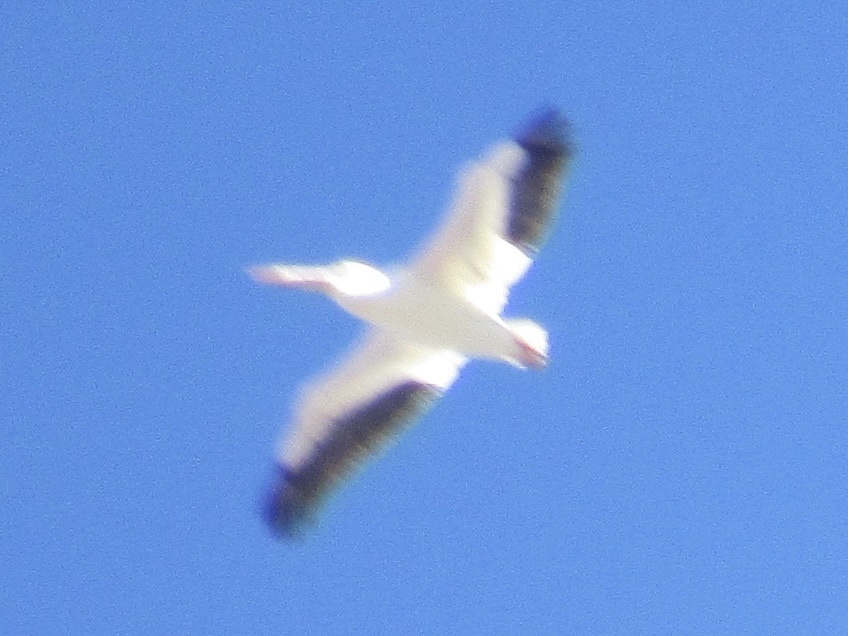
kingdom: Animalia
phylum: Chordata
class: Aves
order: Pelecaniformes
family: Pelecanidae
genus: Pelecanus
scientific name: Pelecanus erythrorhynchos
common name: American white pelican
